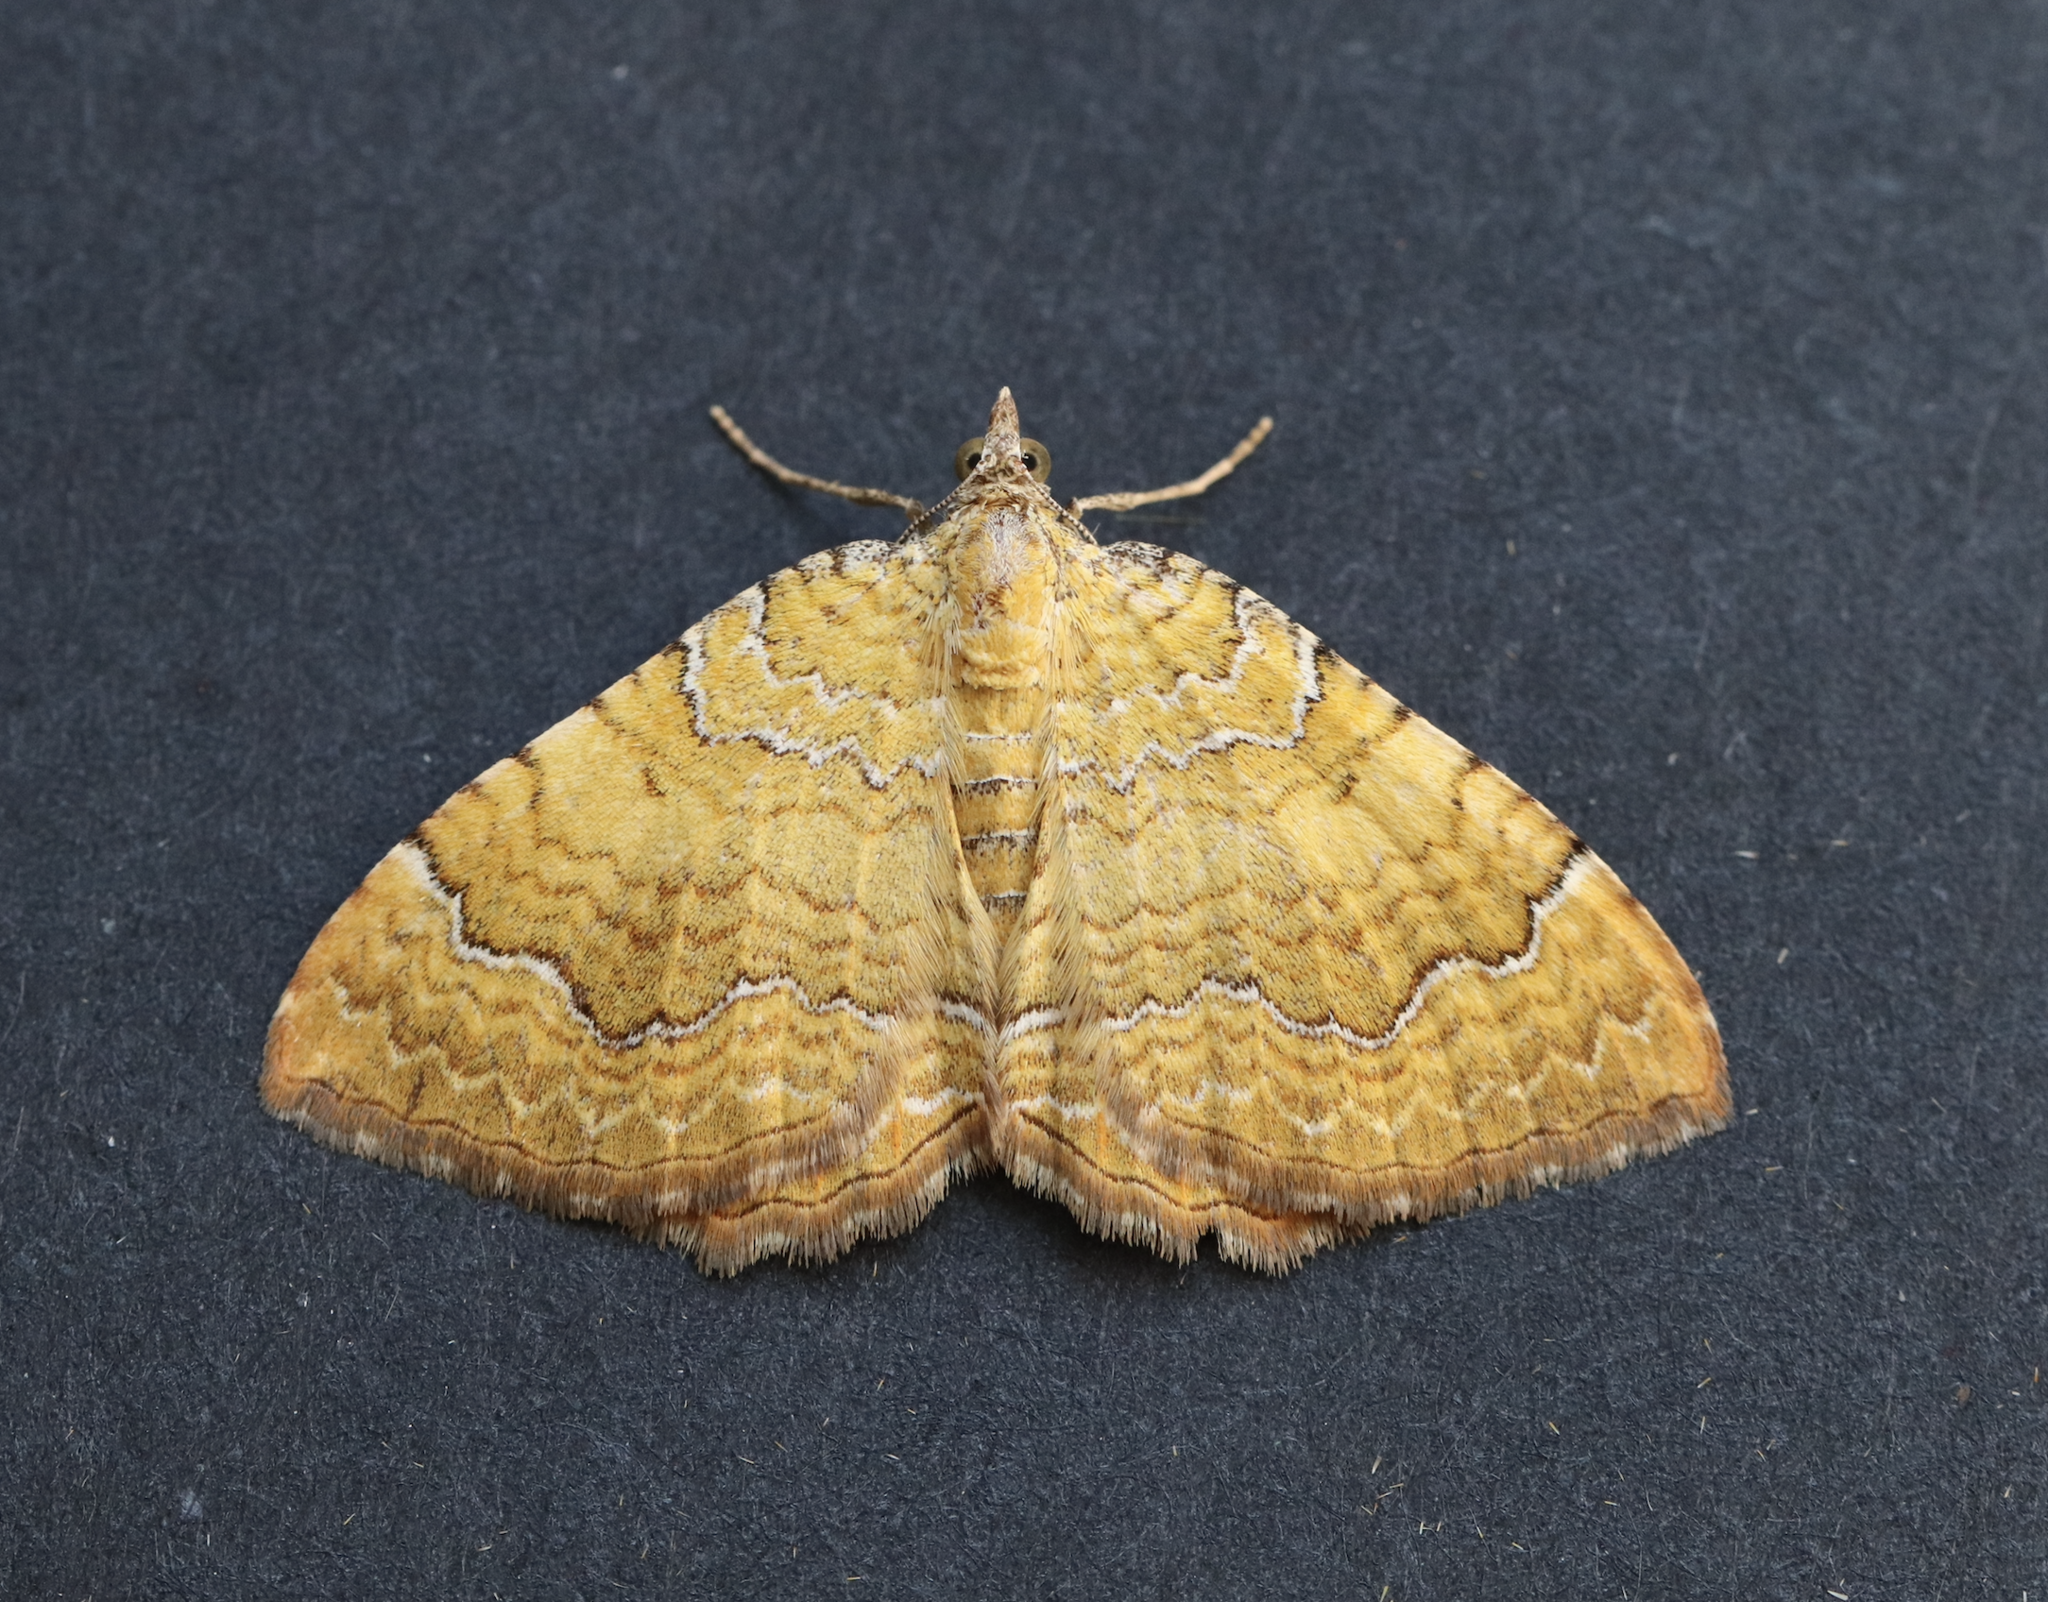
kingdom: Animalia
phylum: Arthropoda
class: Insecta
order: Lepidoptera
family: Geometridae
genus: Camptogramma
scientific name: Camptogramma bilineata
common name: Yellow shell
